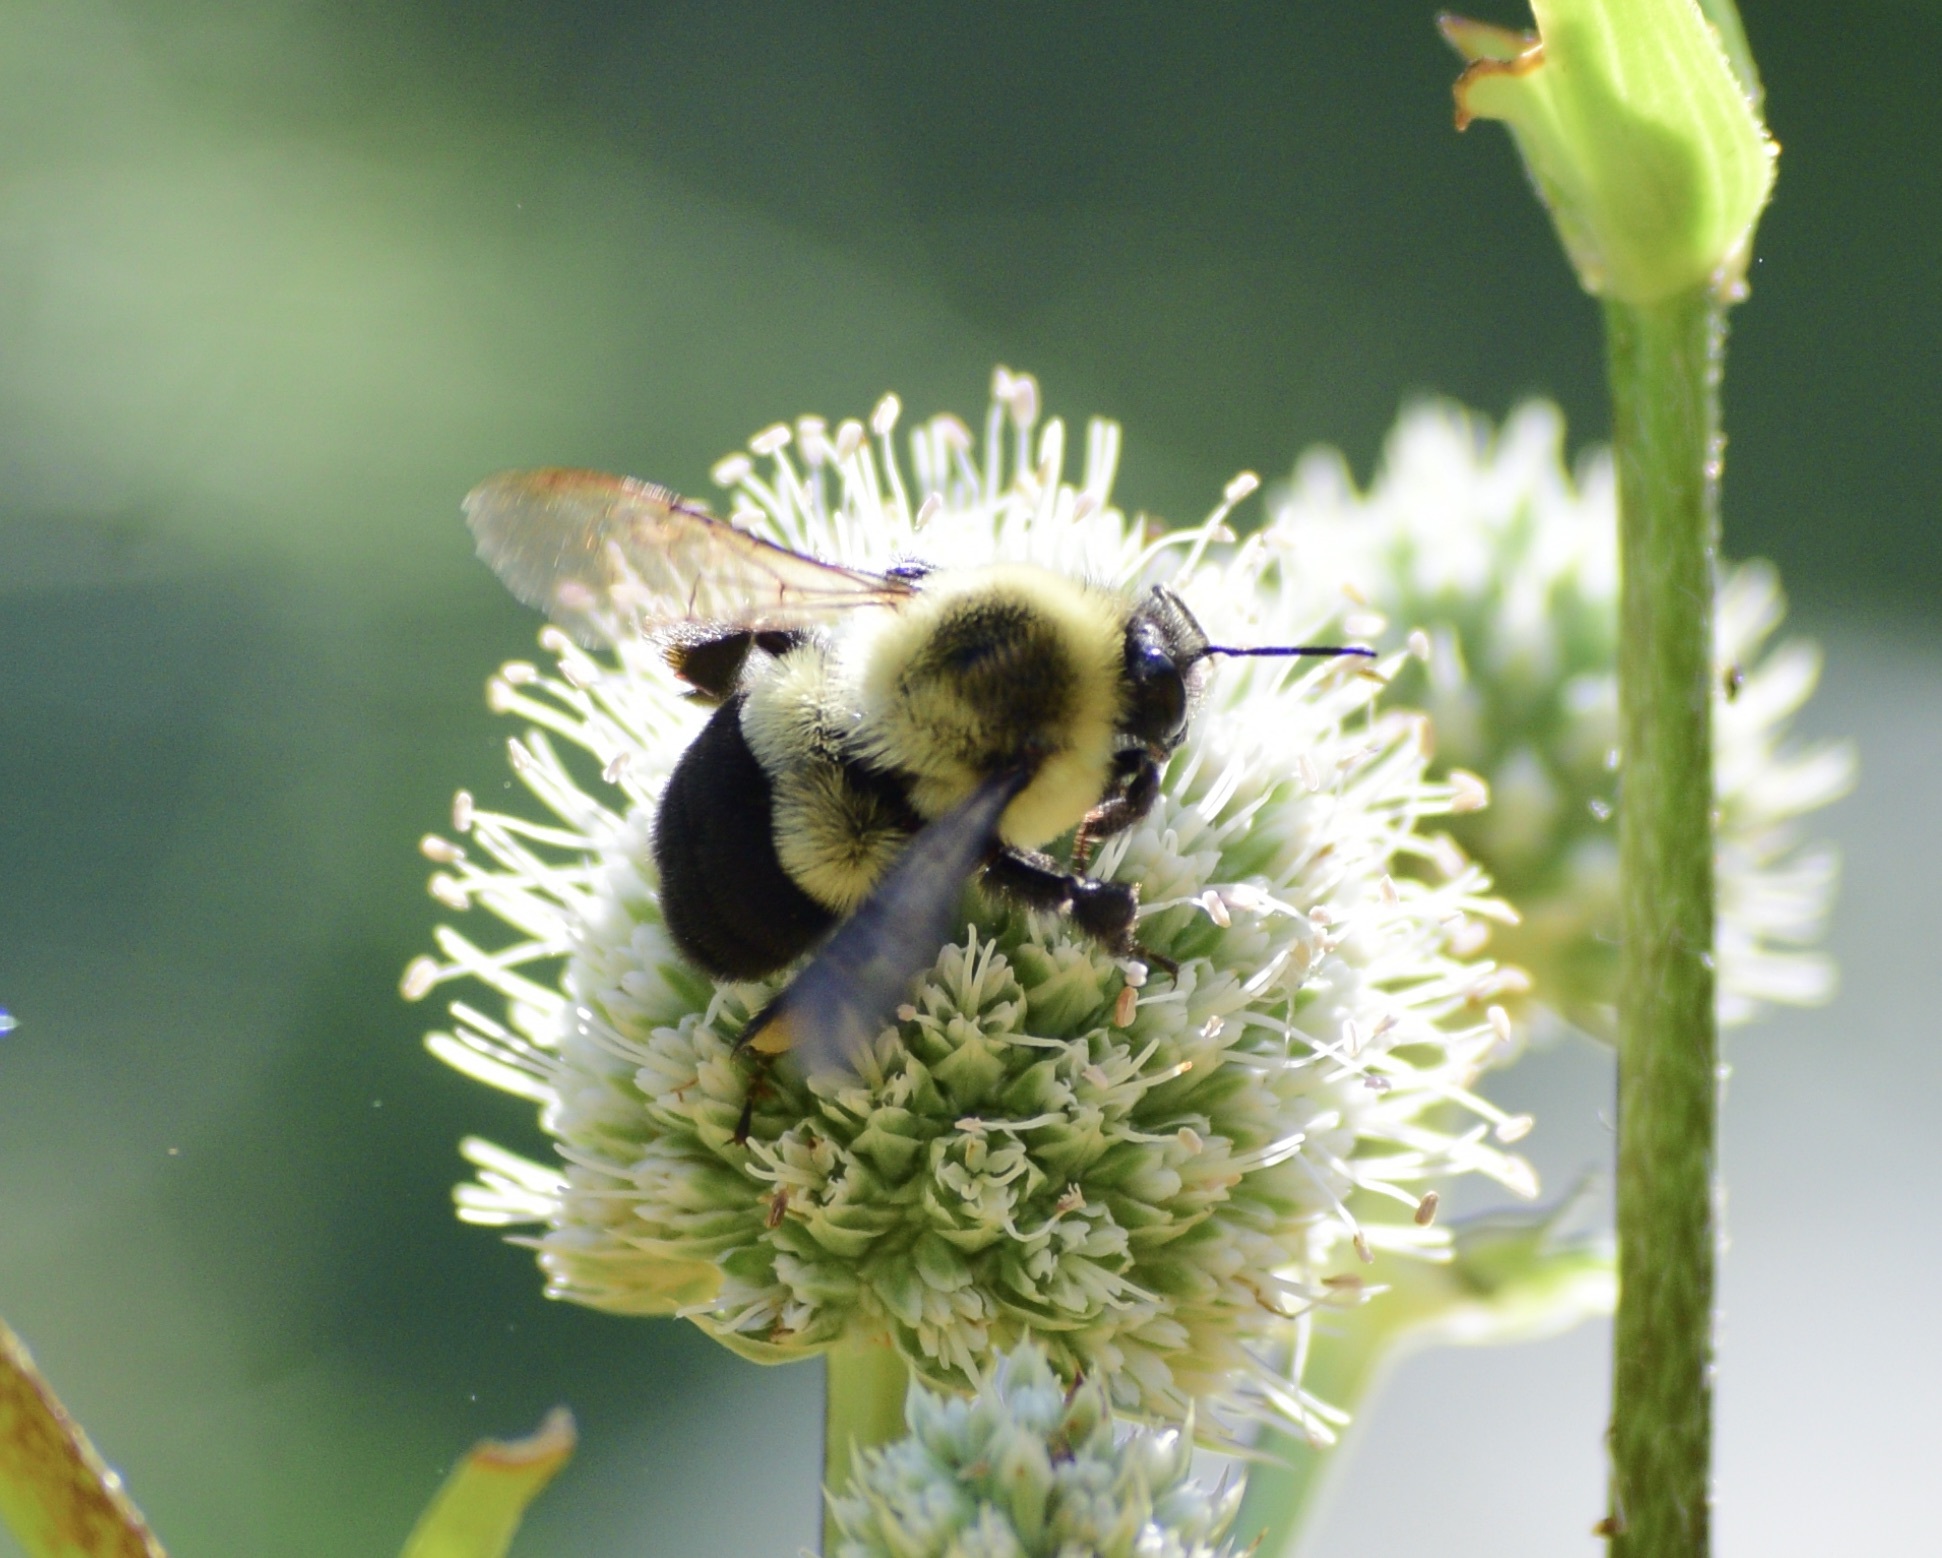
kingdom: Animalia
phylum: Arthropoda
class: Insecta
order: Hymenoptera
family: Apidae
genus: Bombus
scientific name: Bombus impatiens
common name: Common eastern bumble bee
